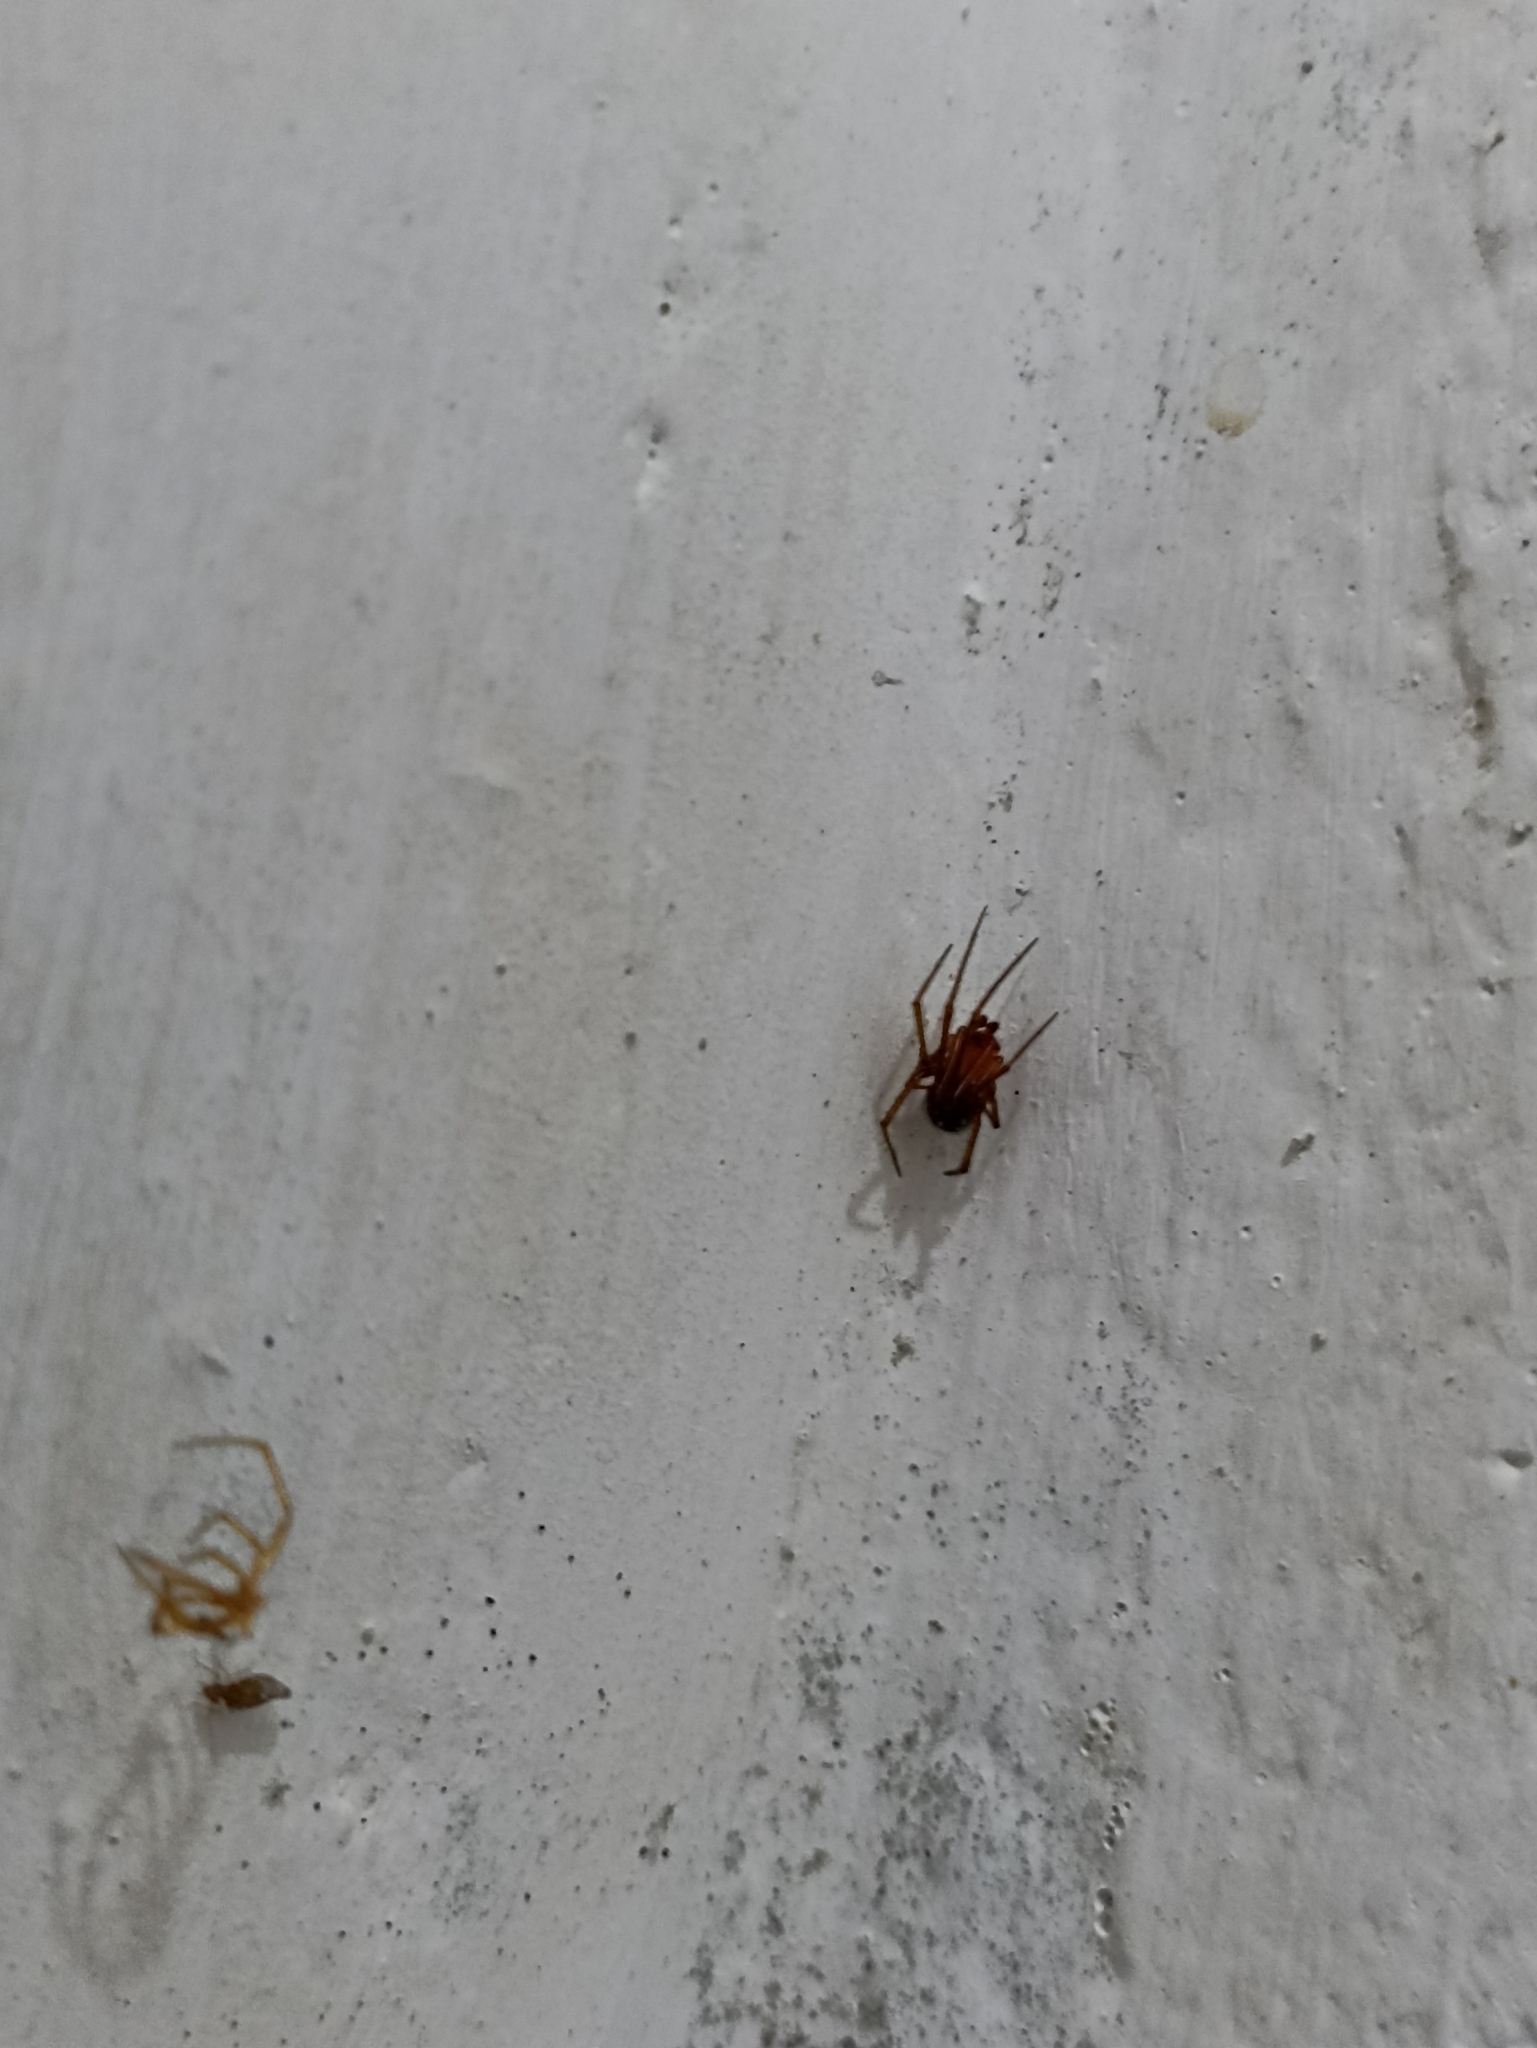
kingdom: Animalia
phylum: Arthropoda
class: Arachnida
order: Araneae
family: Theridiidae
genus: Nesticodes
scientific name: Nesticodes rufipes
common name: Cobweb spiders
